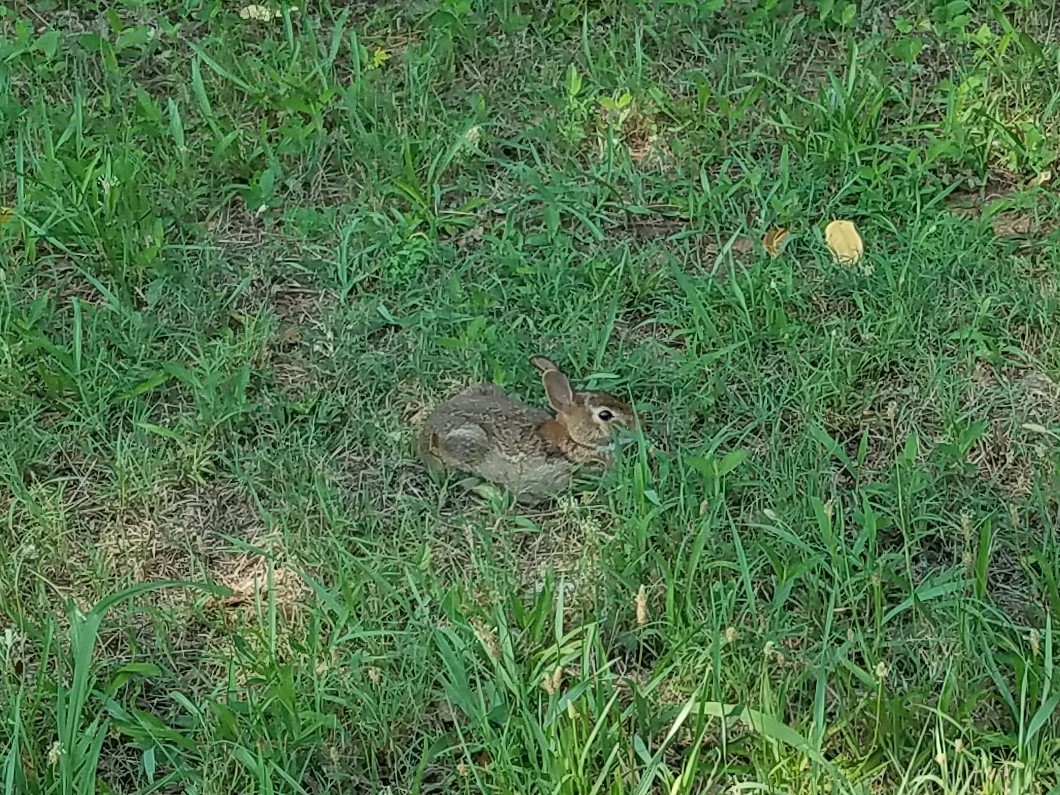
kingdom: Animalia
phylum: Chordata
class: Mammalia
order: Lagomorpha
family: Leporidae
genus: Sylvilagus
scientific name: Sylvilagus floridanus
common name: Eastern cottontail
